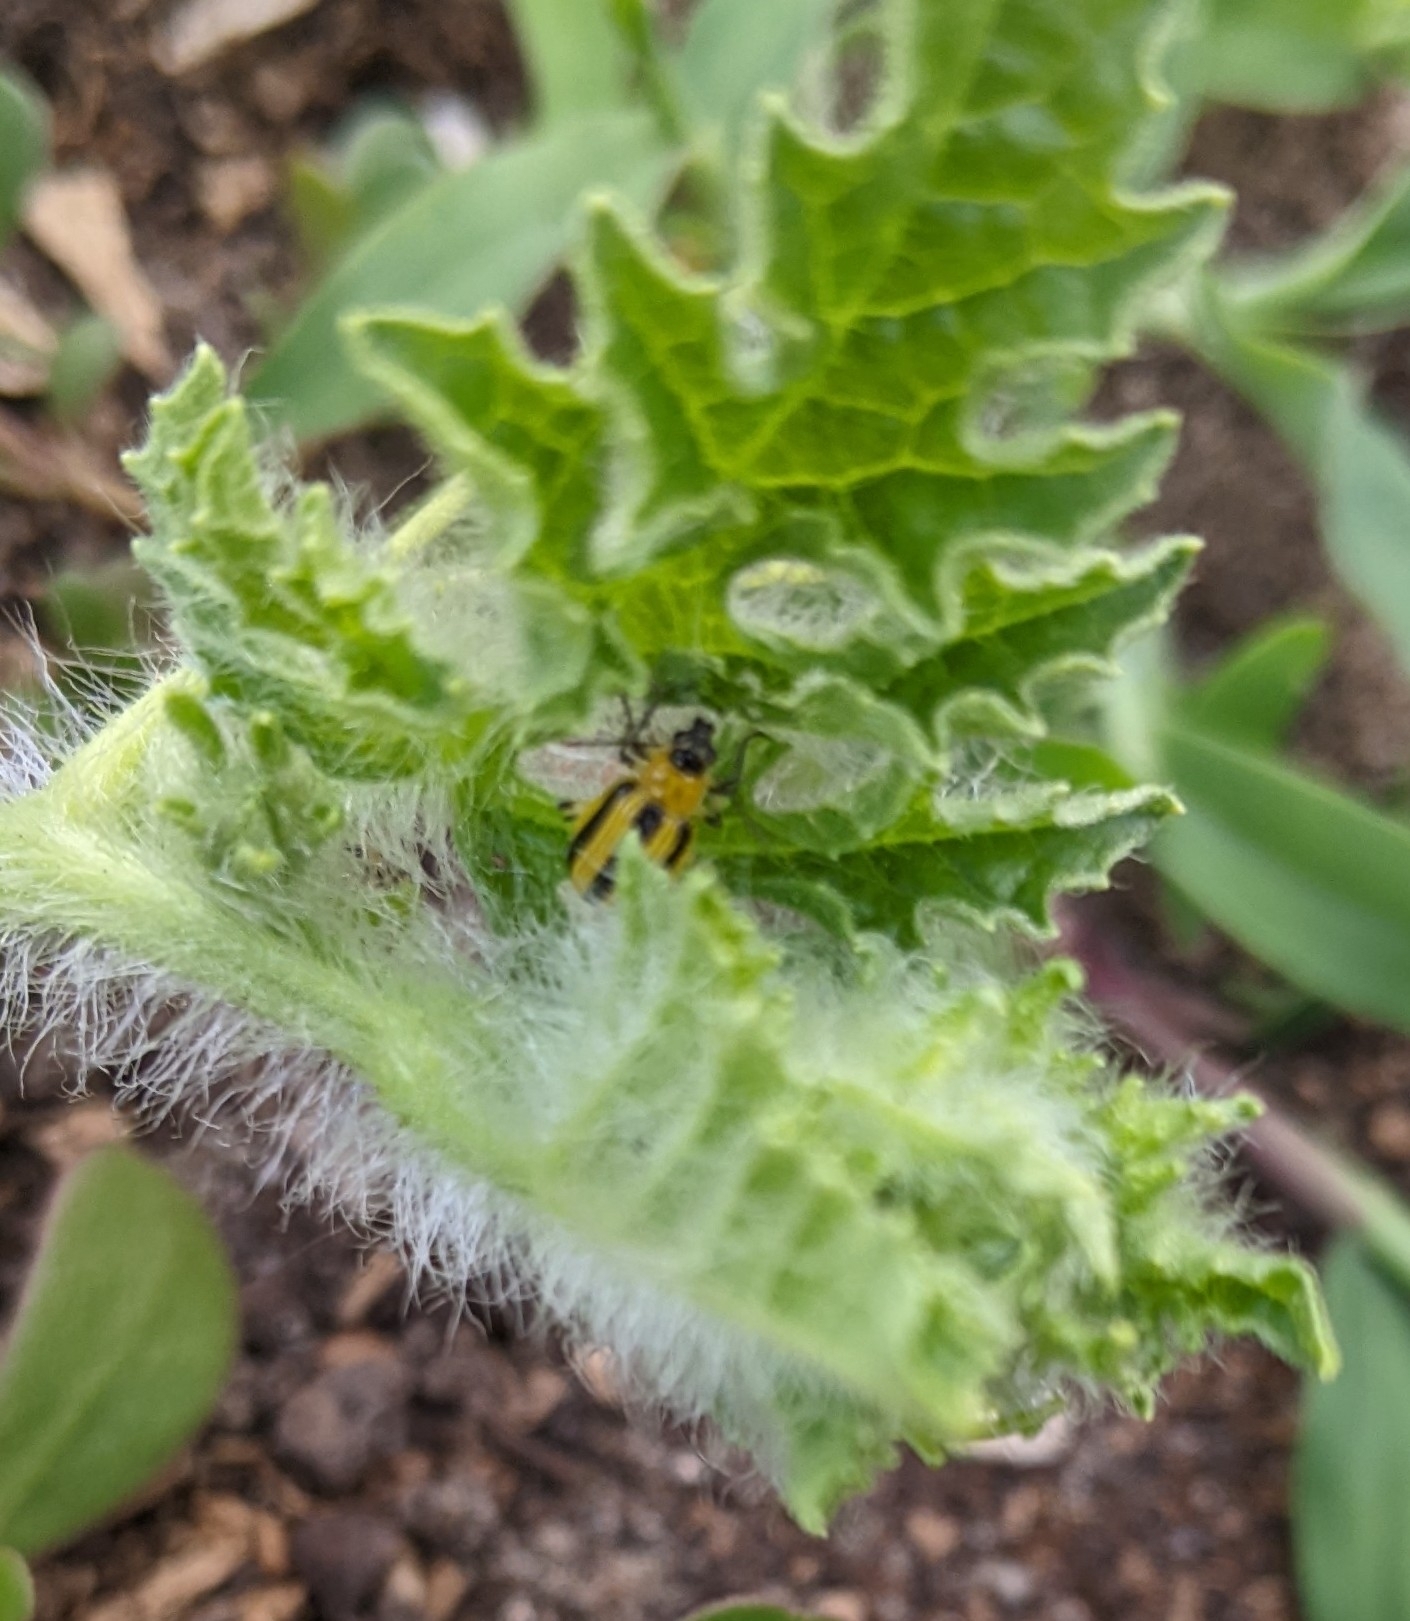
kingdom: Animalia
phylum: Arthropoda
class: Insecta
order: Coleoptera
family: Chrysomelidae
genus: Acalymma
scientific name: Acalymma vittatum
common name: Striped cucumber beetle
